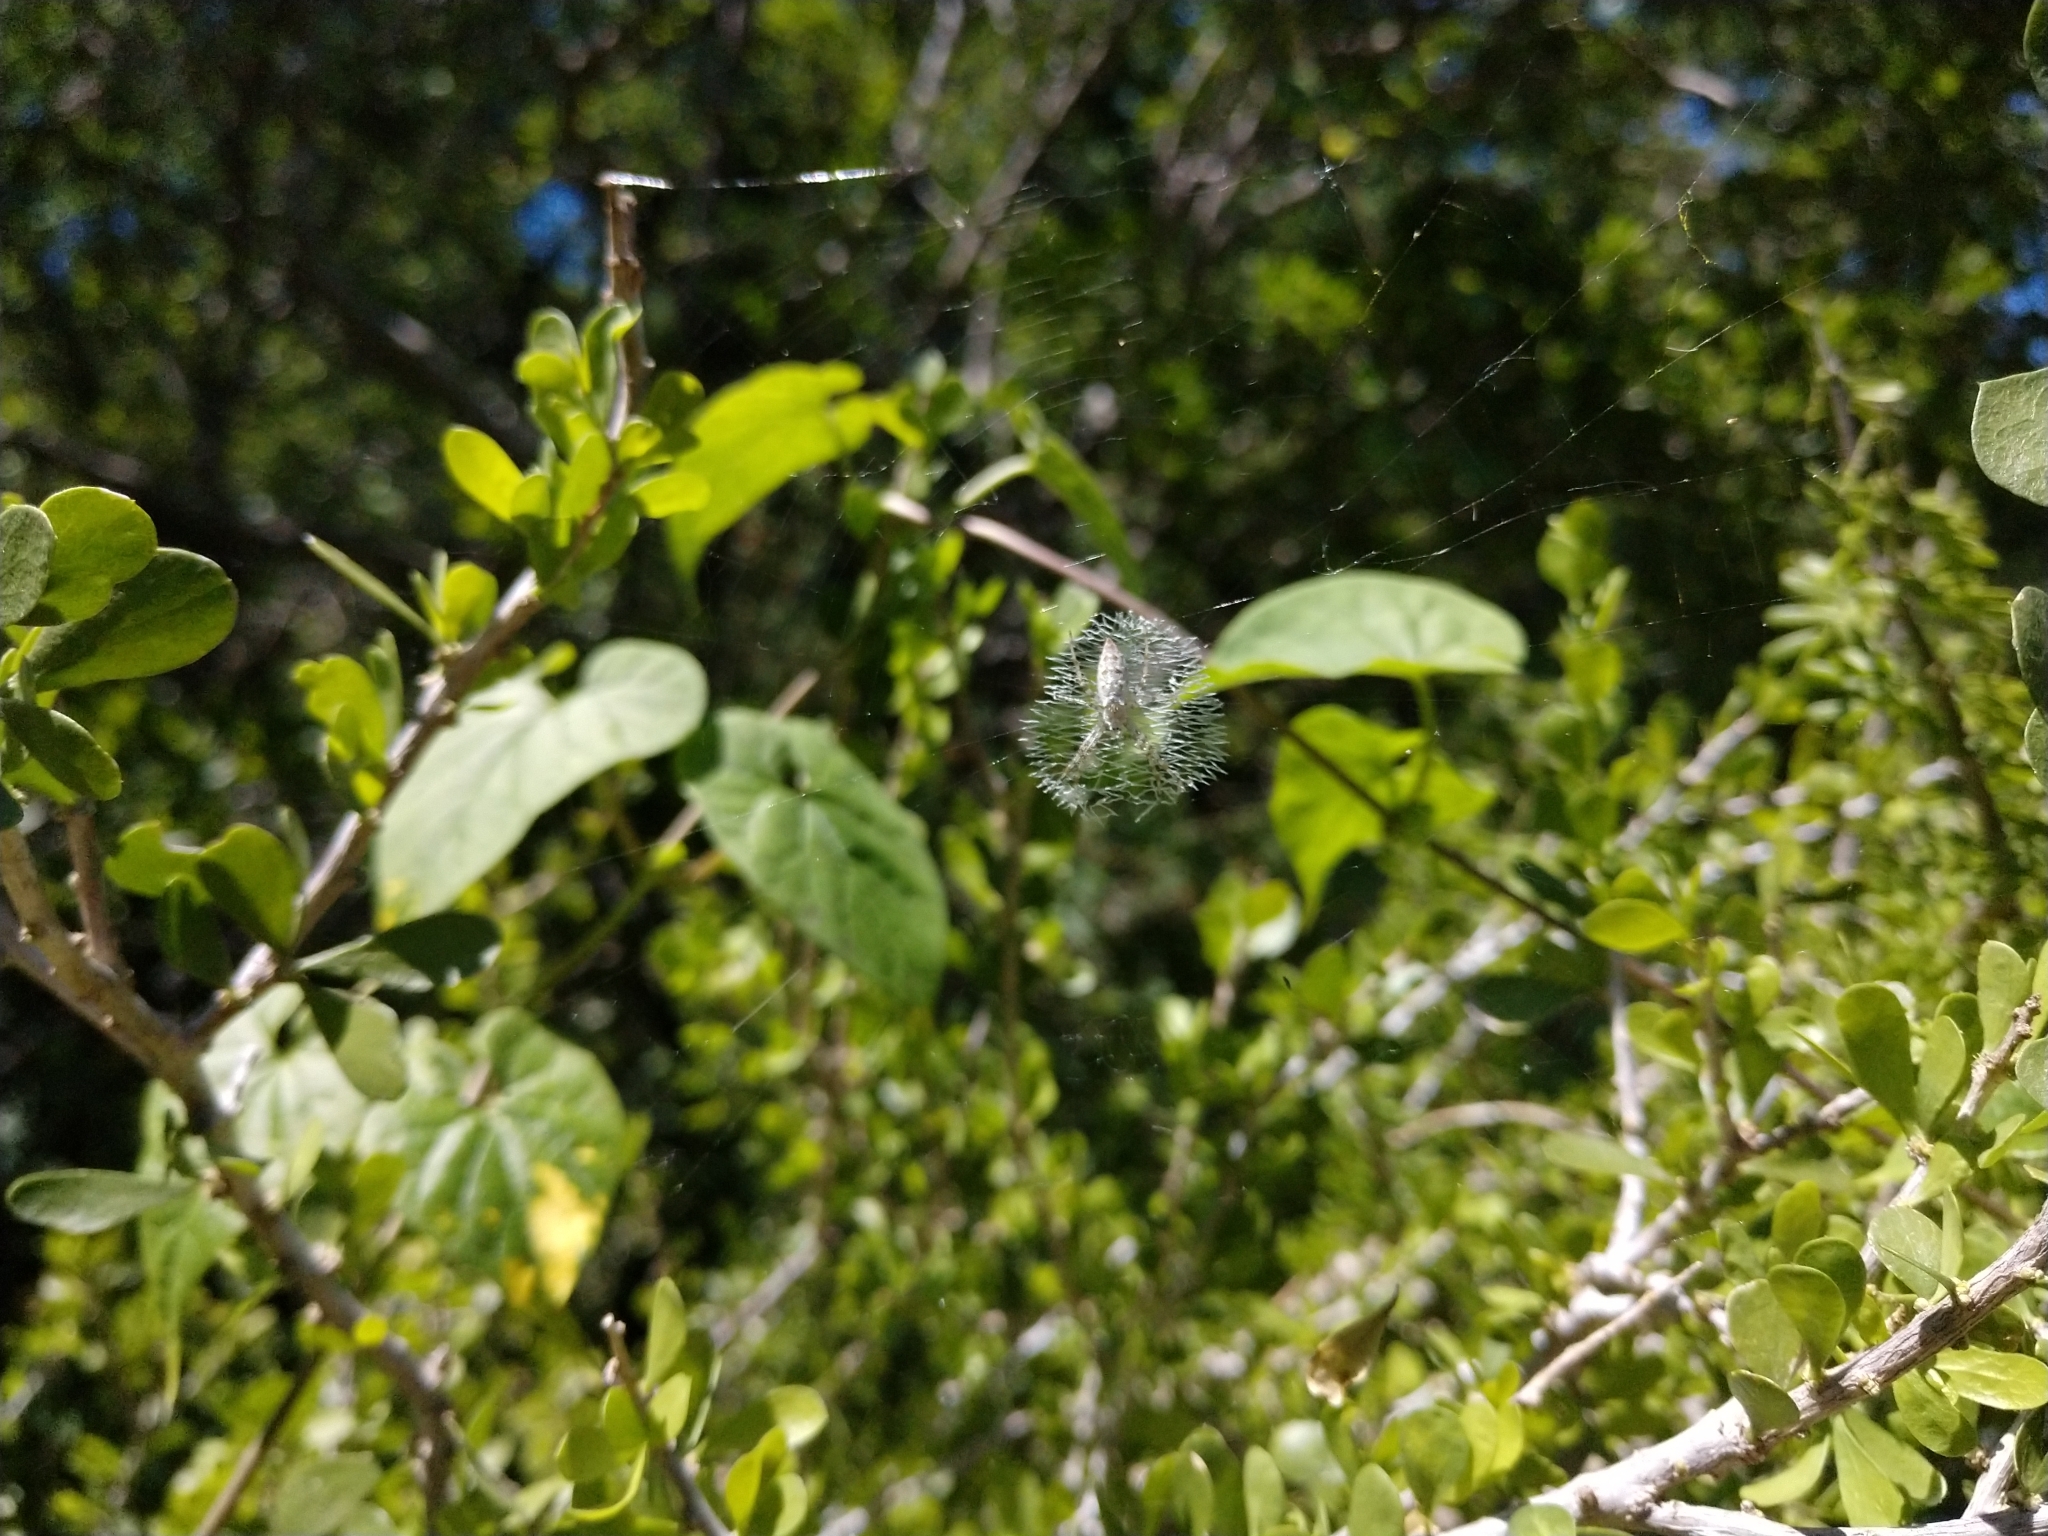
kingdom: Animalia
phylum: Arthropoda
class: Arachnida
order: Araneae
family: Araneidae
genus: Argiope
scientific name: Argiope aurantia
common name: Orb weavers
